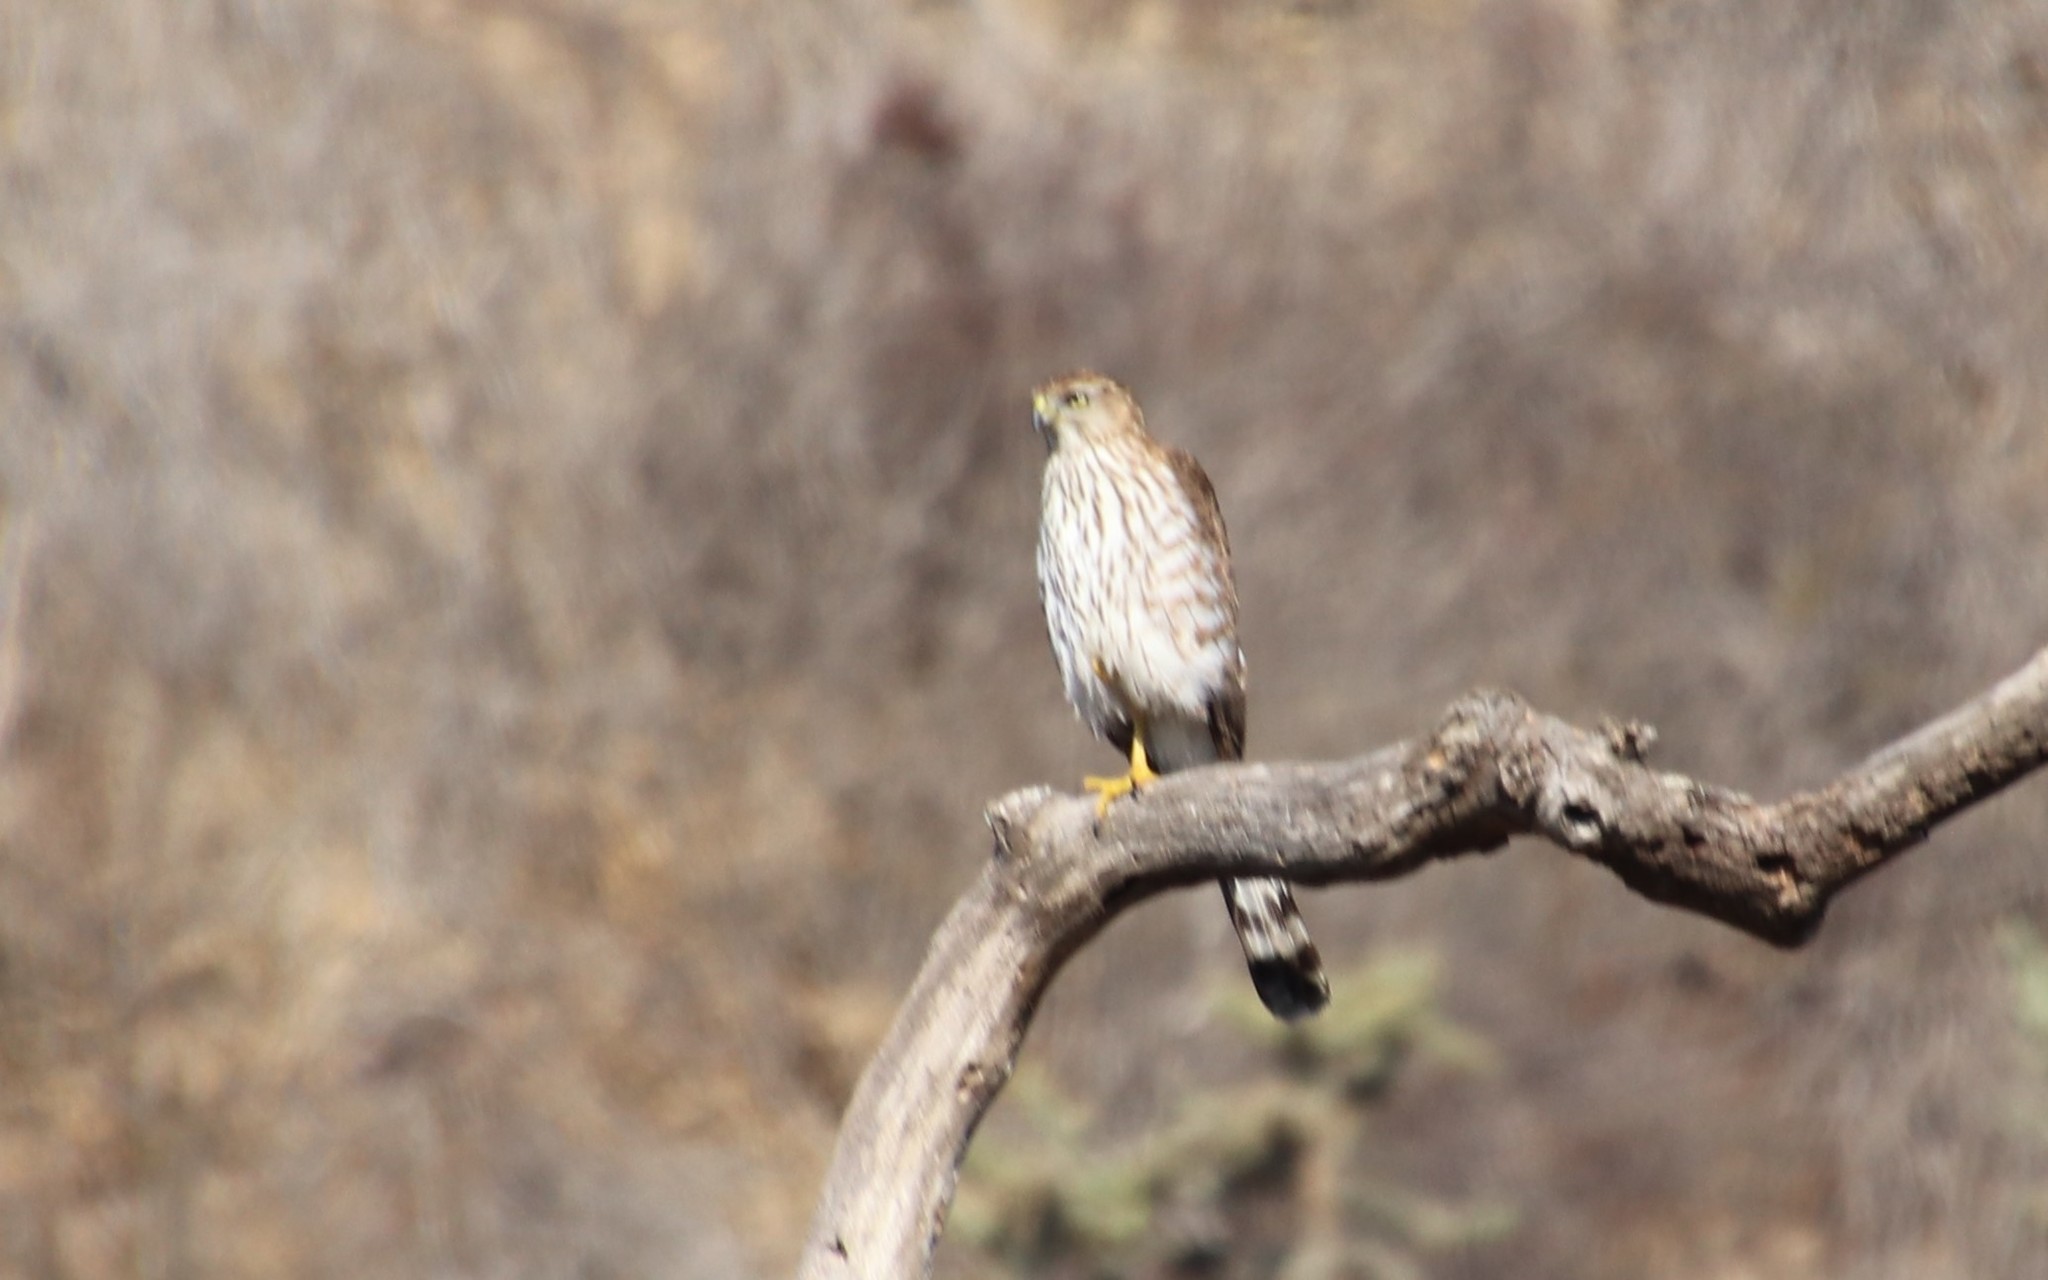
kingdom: Animalia
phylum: Chordata
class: Aves
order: Accipitriformes
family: Accipitridae
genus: Accipiter
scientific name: Accipiter cooperii
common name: Cooper's hawk
